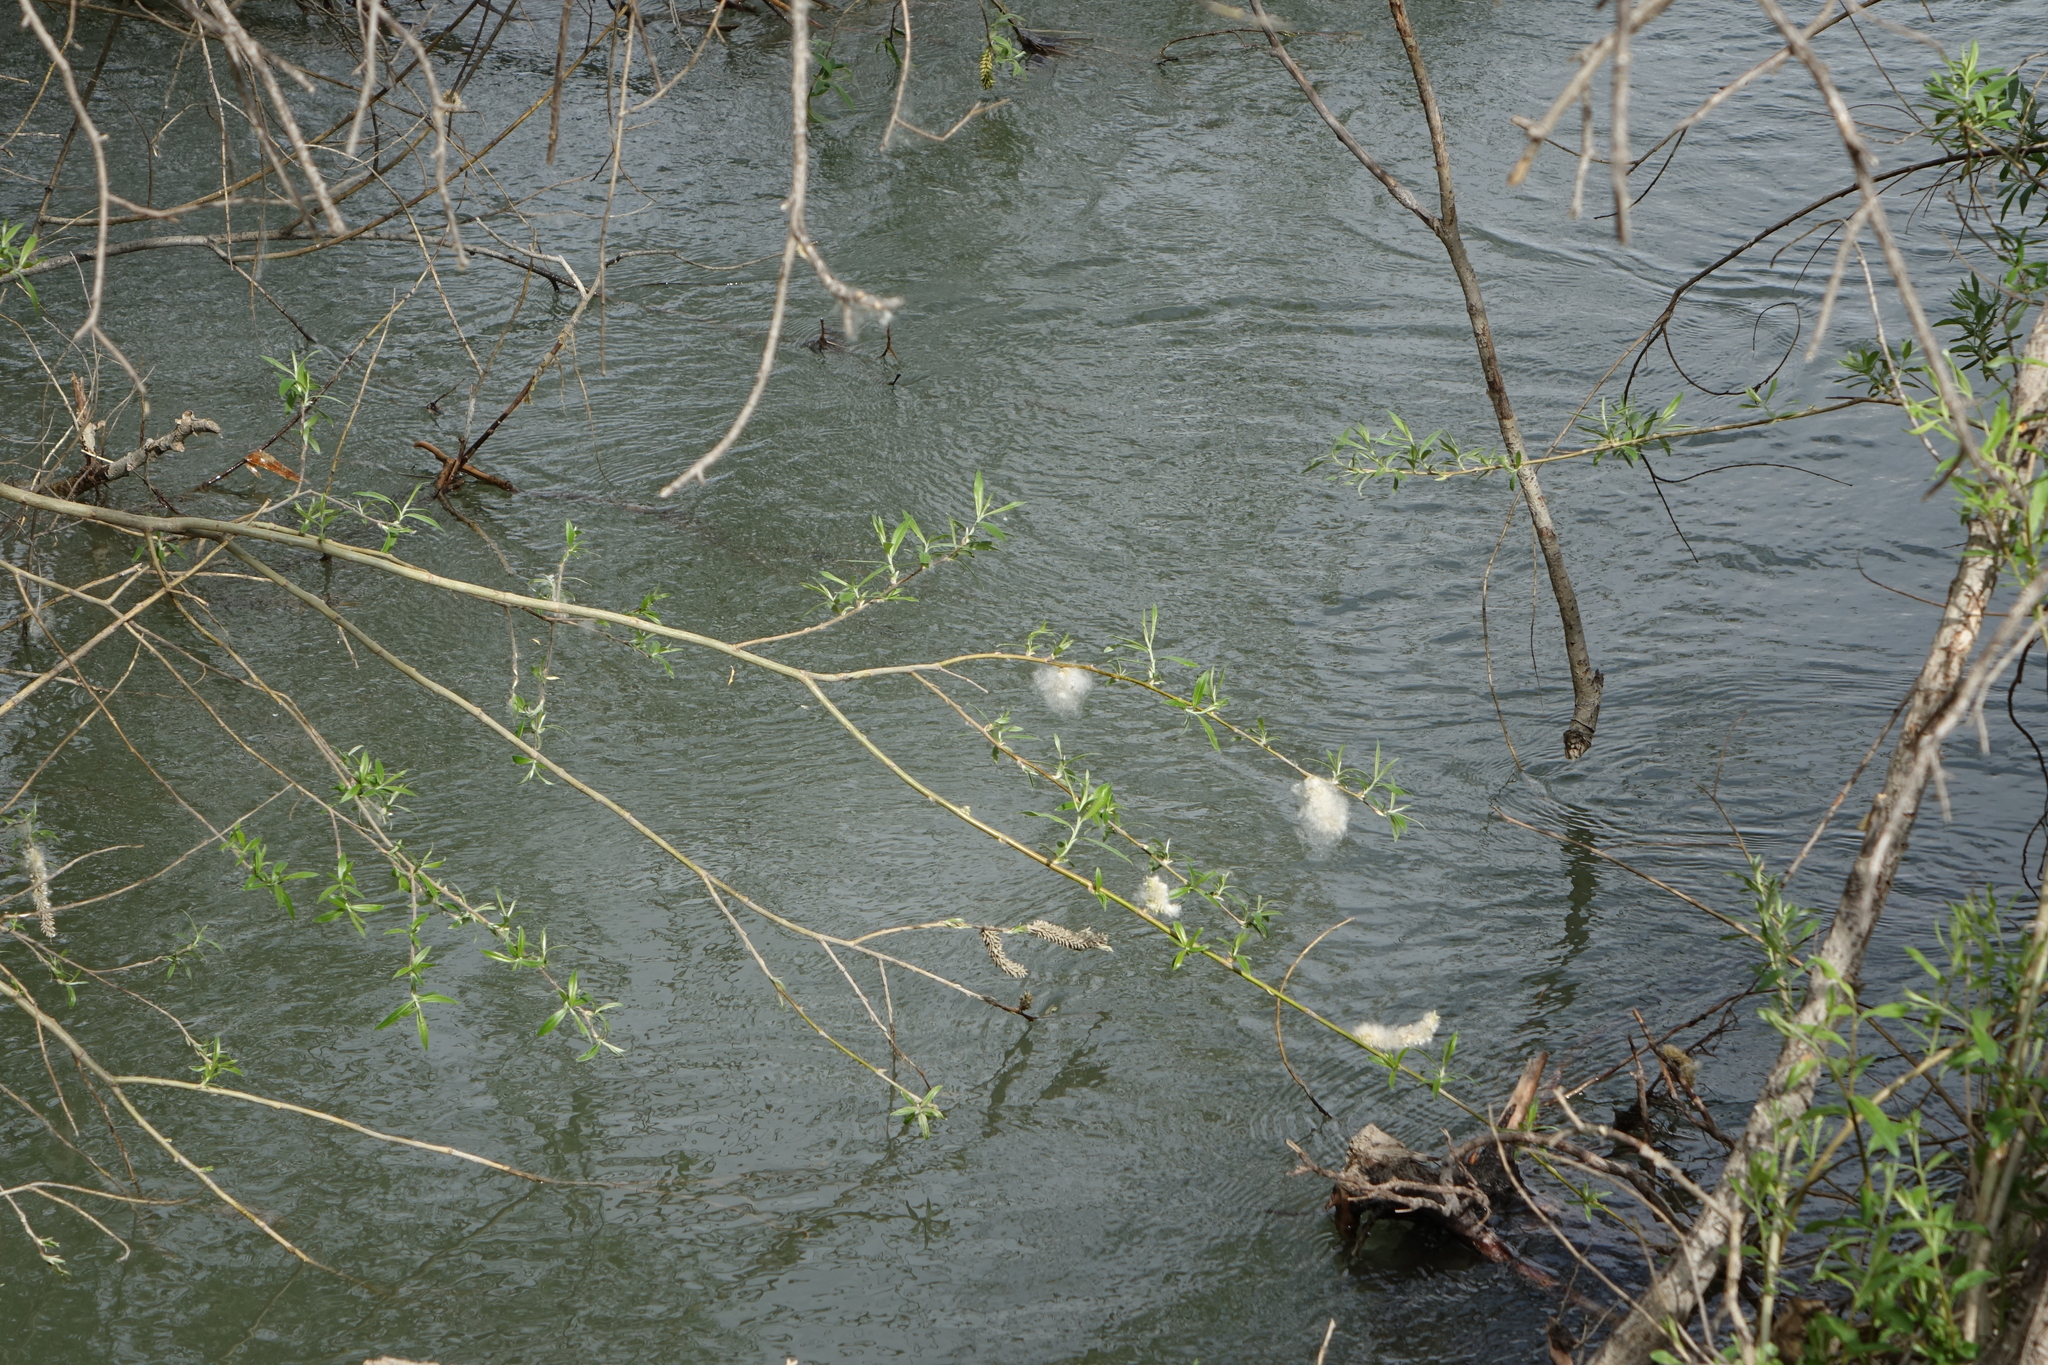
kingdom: Plantae
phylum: Tracheophyta
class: Magnoliopsida
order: Malpighiales
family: Salicaceae
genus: Salix
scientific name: Salix ledebouriana
